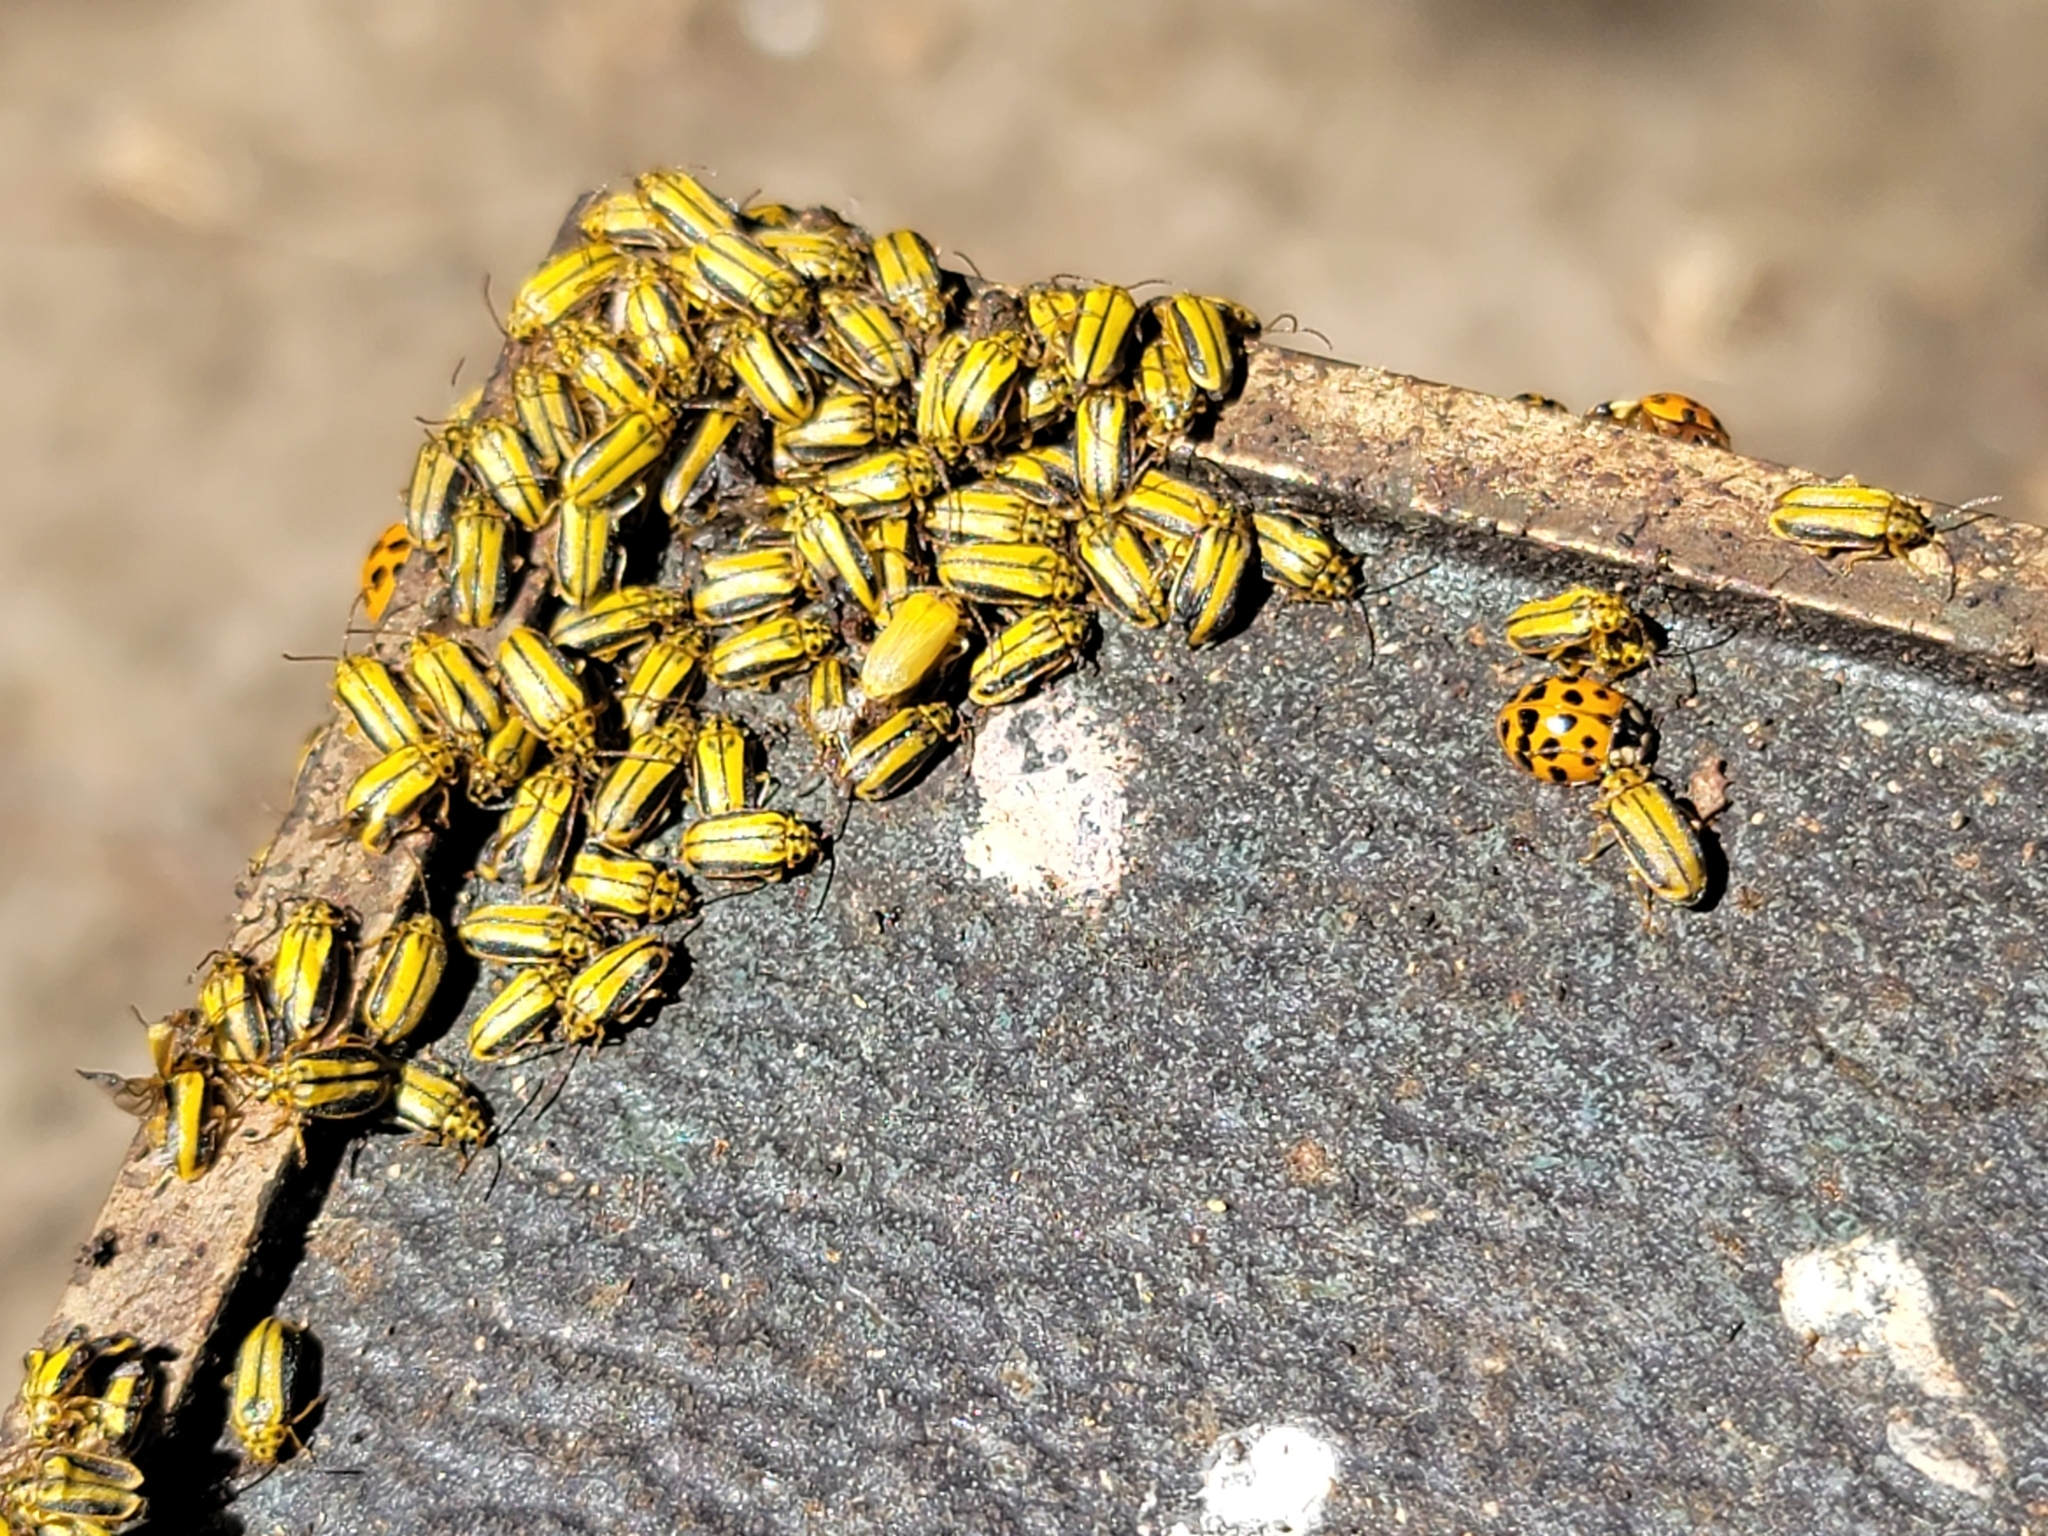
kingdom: Animalia
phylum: Arthropoda
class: Insecta
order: Coleoptera
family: Chrysomelidae
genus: Xanthogaleruca
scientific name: Xanthogaleruca luteola
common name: Elm leaf beetle
